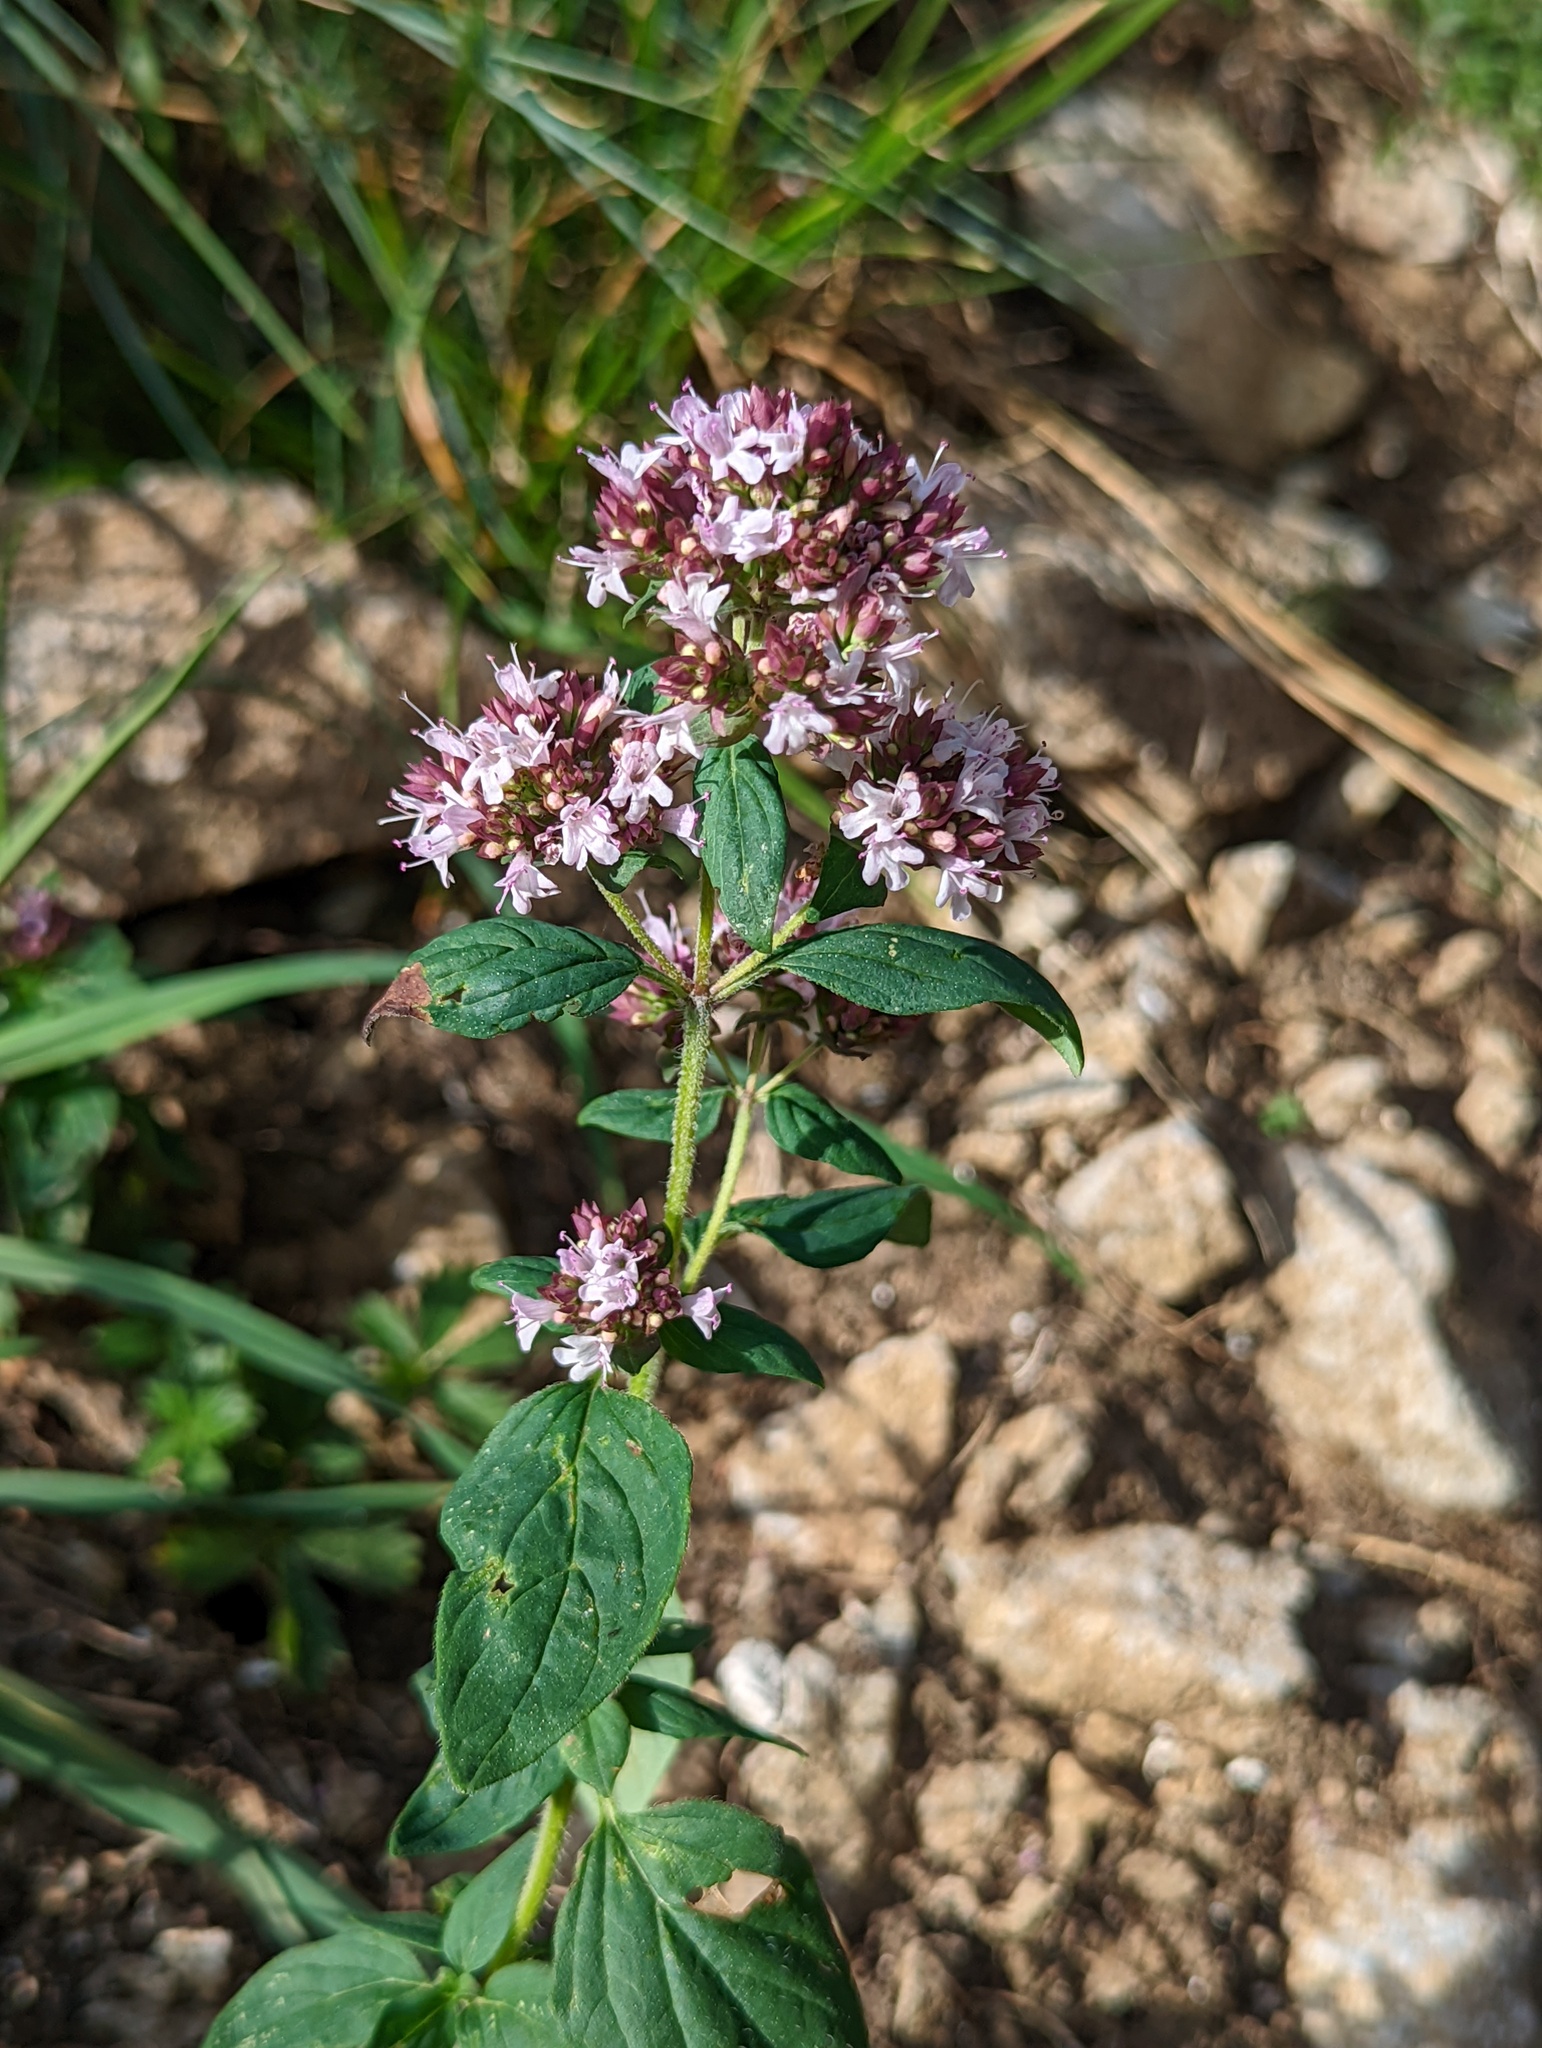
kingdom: Plantae
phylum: Tracheophyta
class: Magnoliopsida
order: Lamiales
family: Lamiaceae
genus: Origanum
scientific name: Origanum vulgare
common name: Wild marjoram
